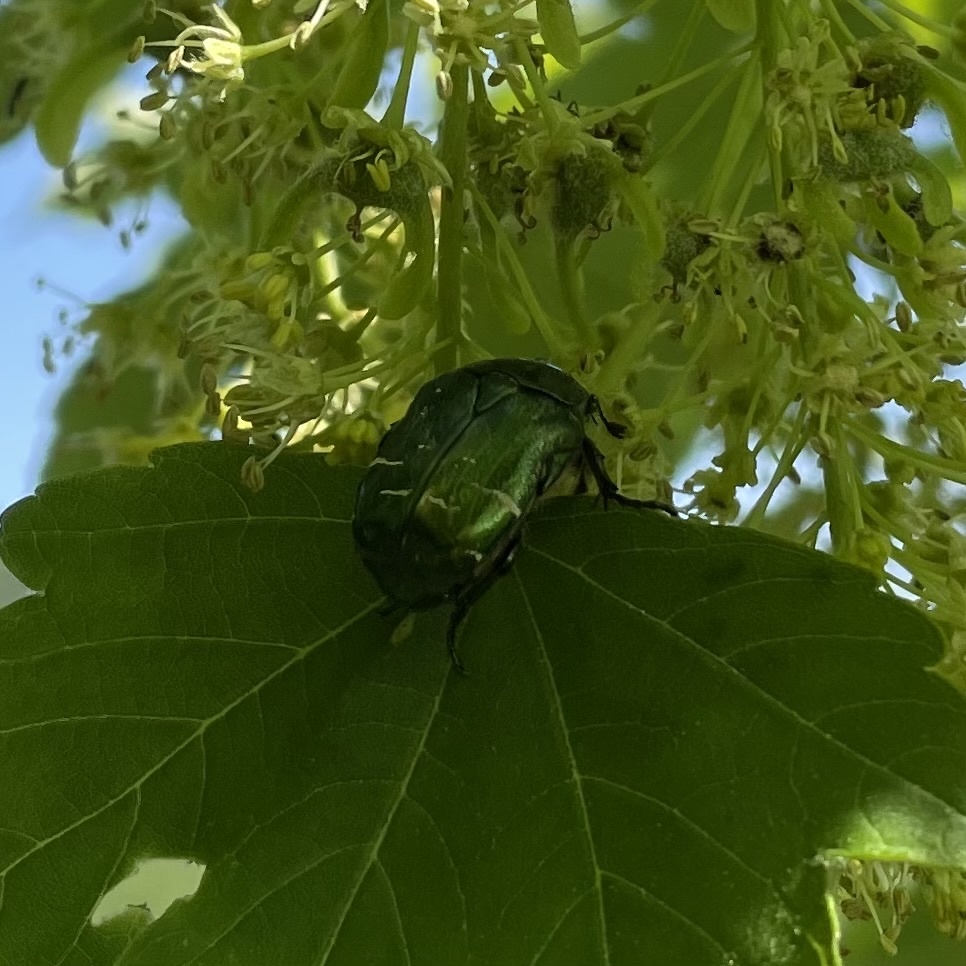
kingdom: Animalia
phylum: Arthropoda
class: Insecta
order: Coleoptera
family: Scarabaeidae
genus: Cetonia
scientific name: Cetonia aurata
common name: Rose chafer
